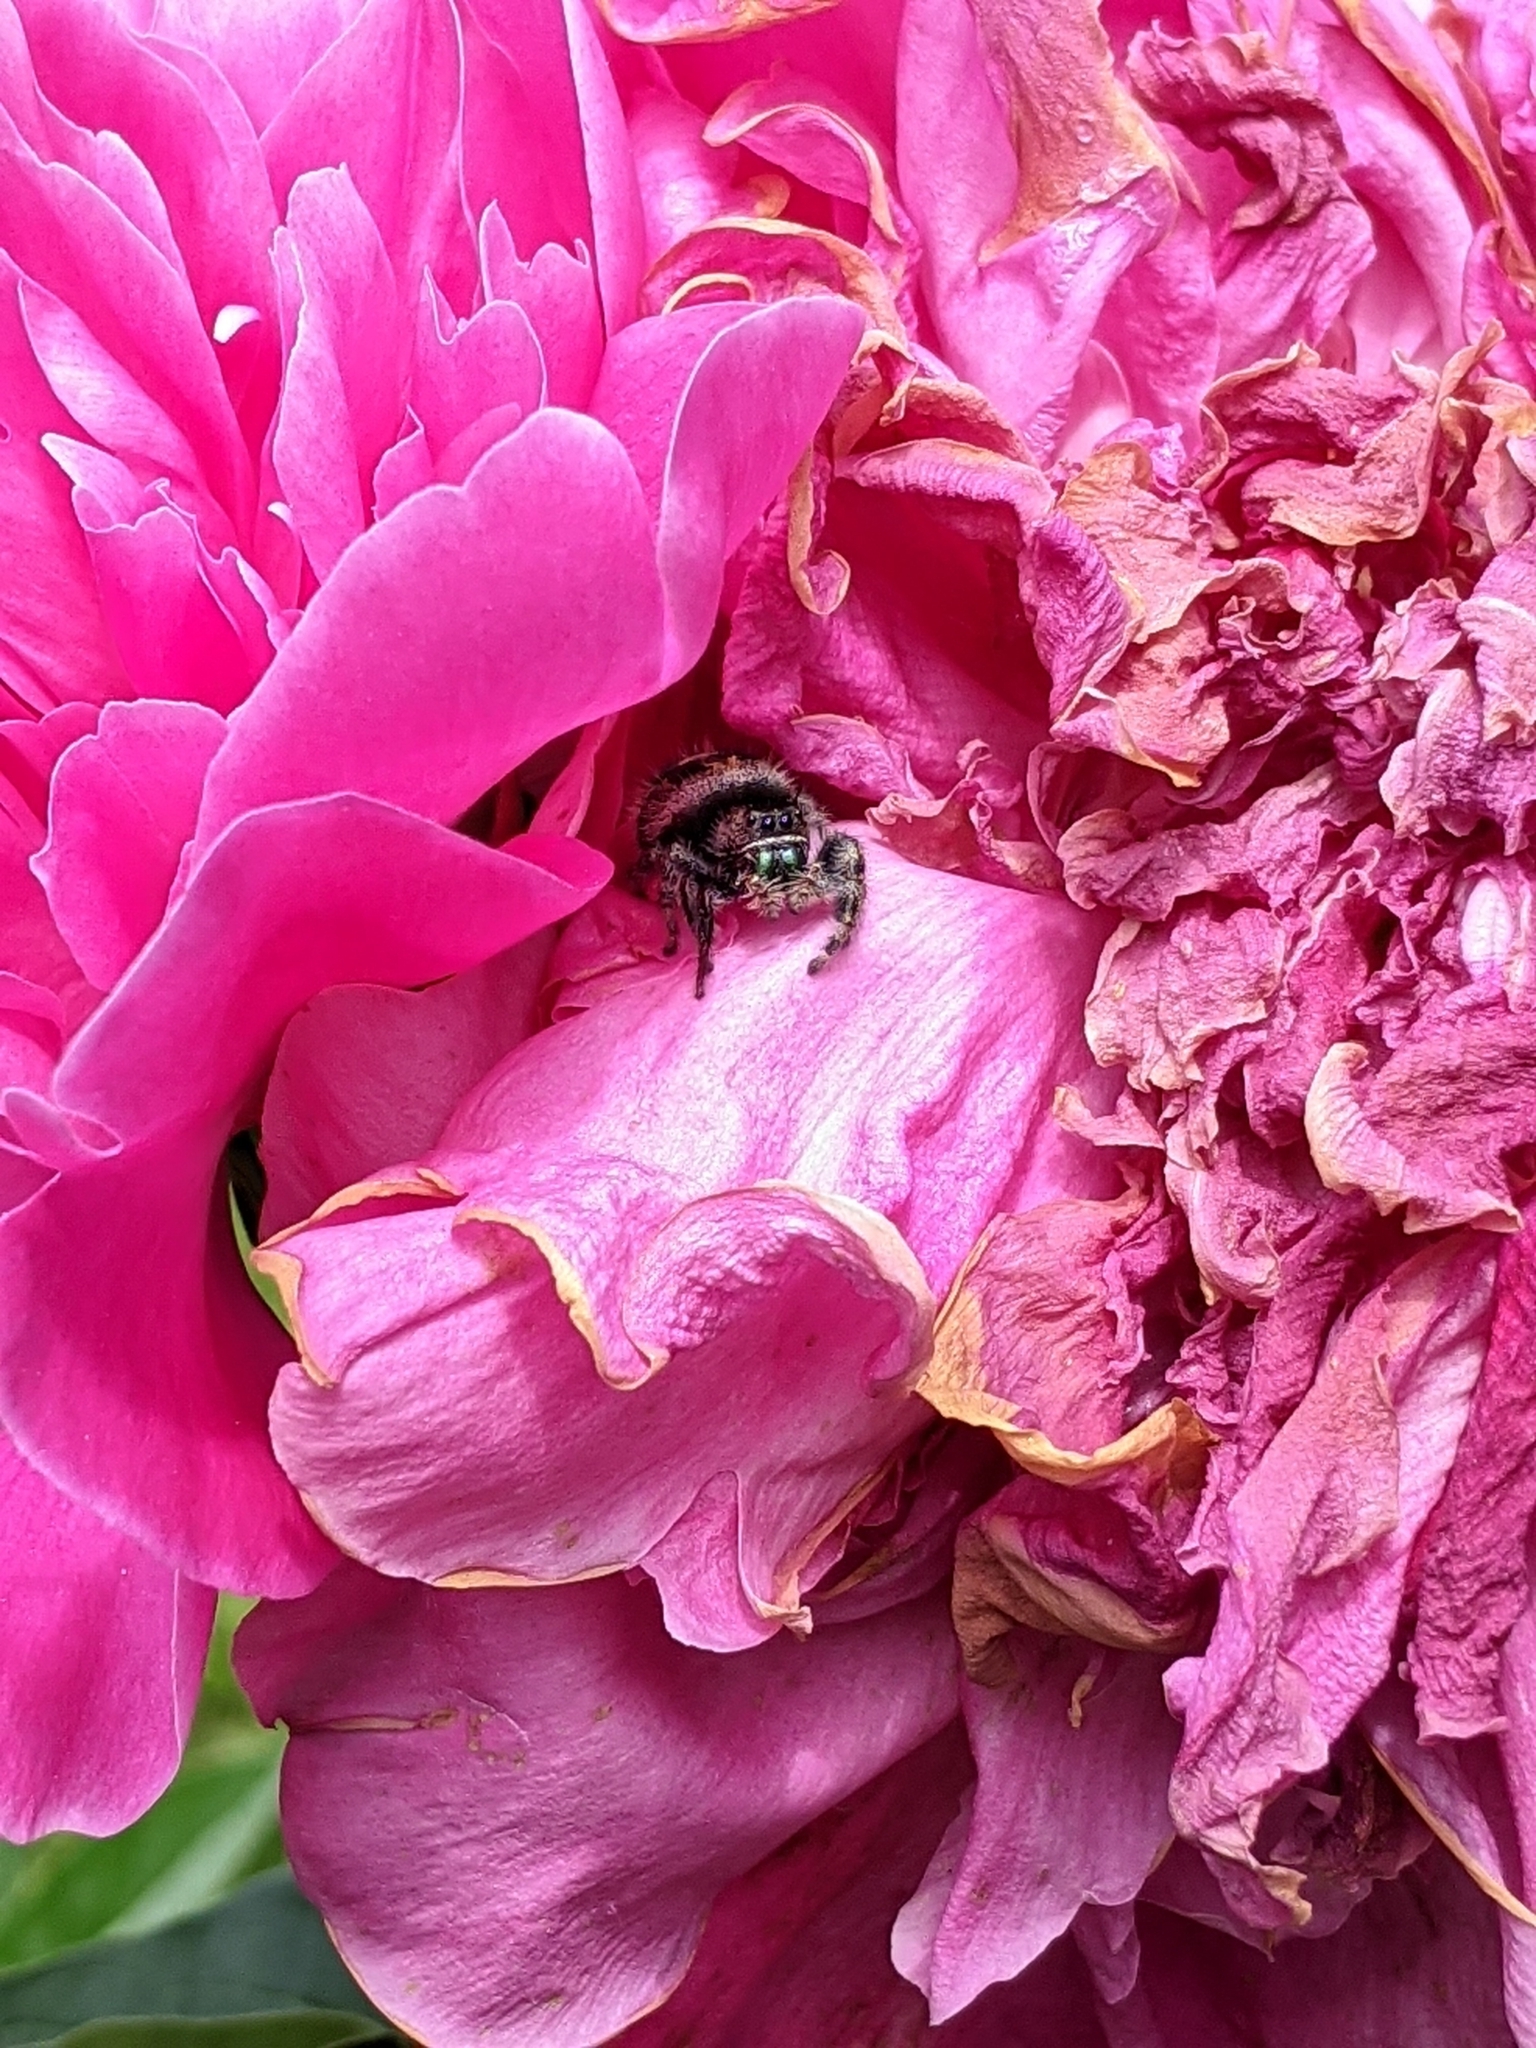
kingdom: Animalia
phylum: Arthropoda
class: Arachnida
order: Araneae
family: Salticidae
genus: Phidippus
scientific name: Phidippus audax
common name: Bold jumper
